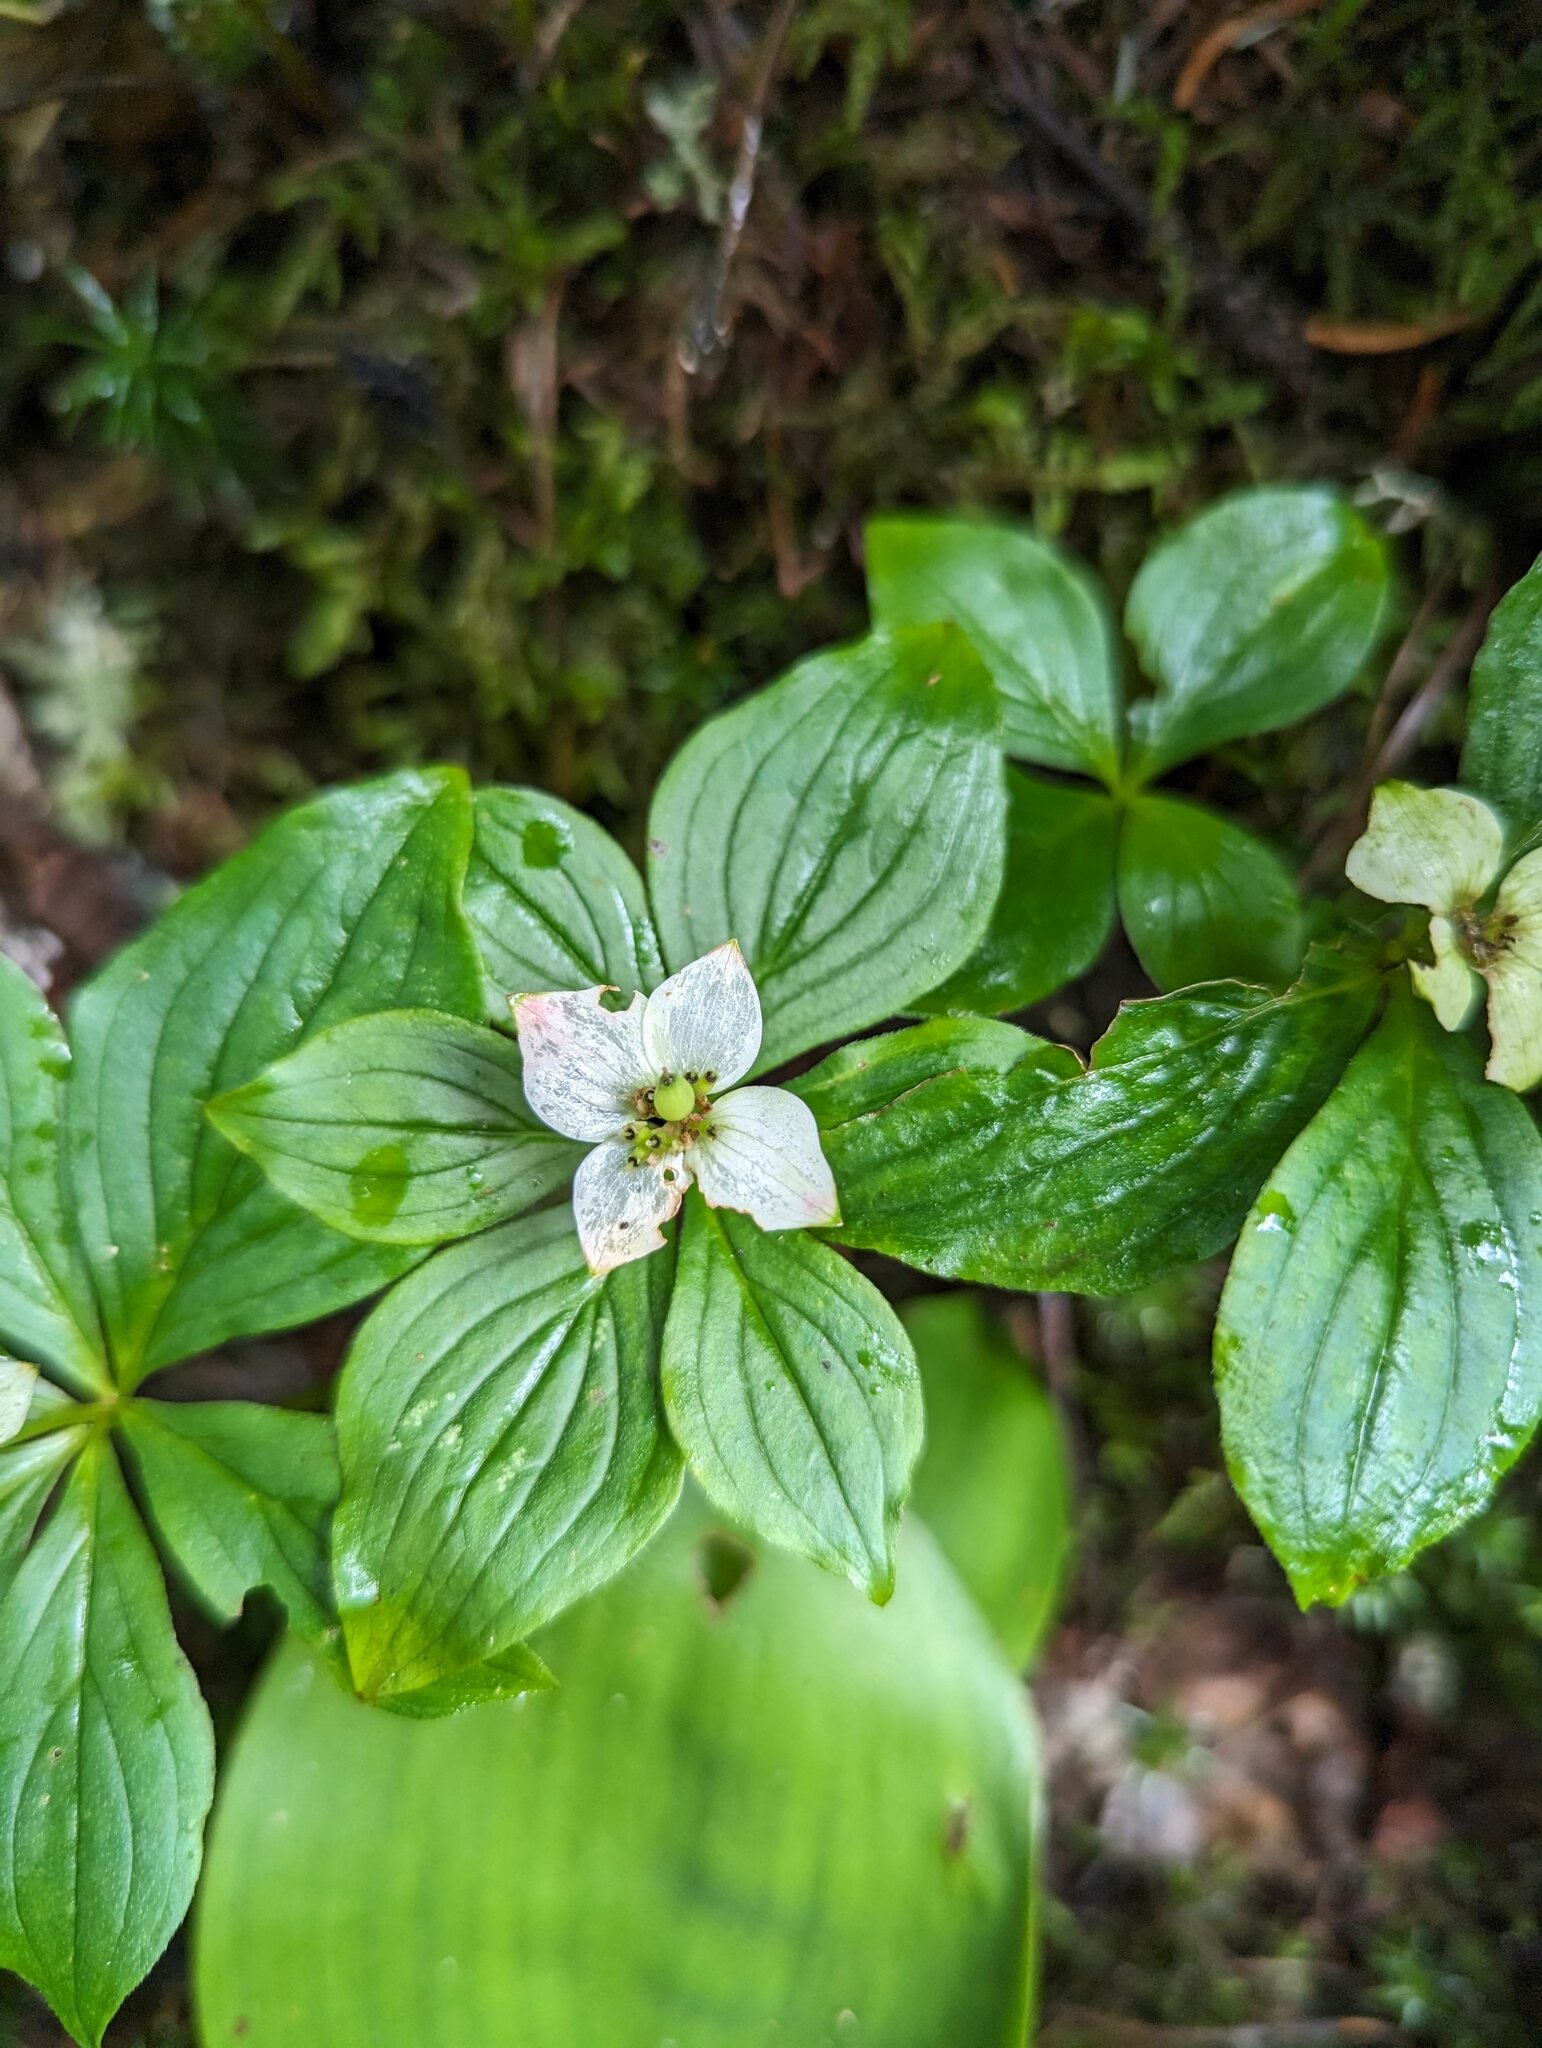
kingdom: Plantae
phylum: Tracheophyta
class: Magnoliopsida
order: Cornales
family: Cornaceae
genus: Cornus
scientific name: Cornus canadensis
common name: Creeping dogwood
